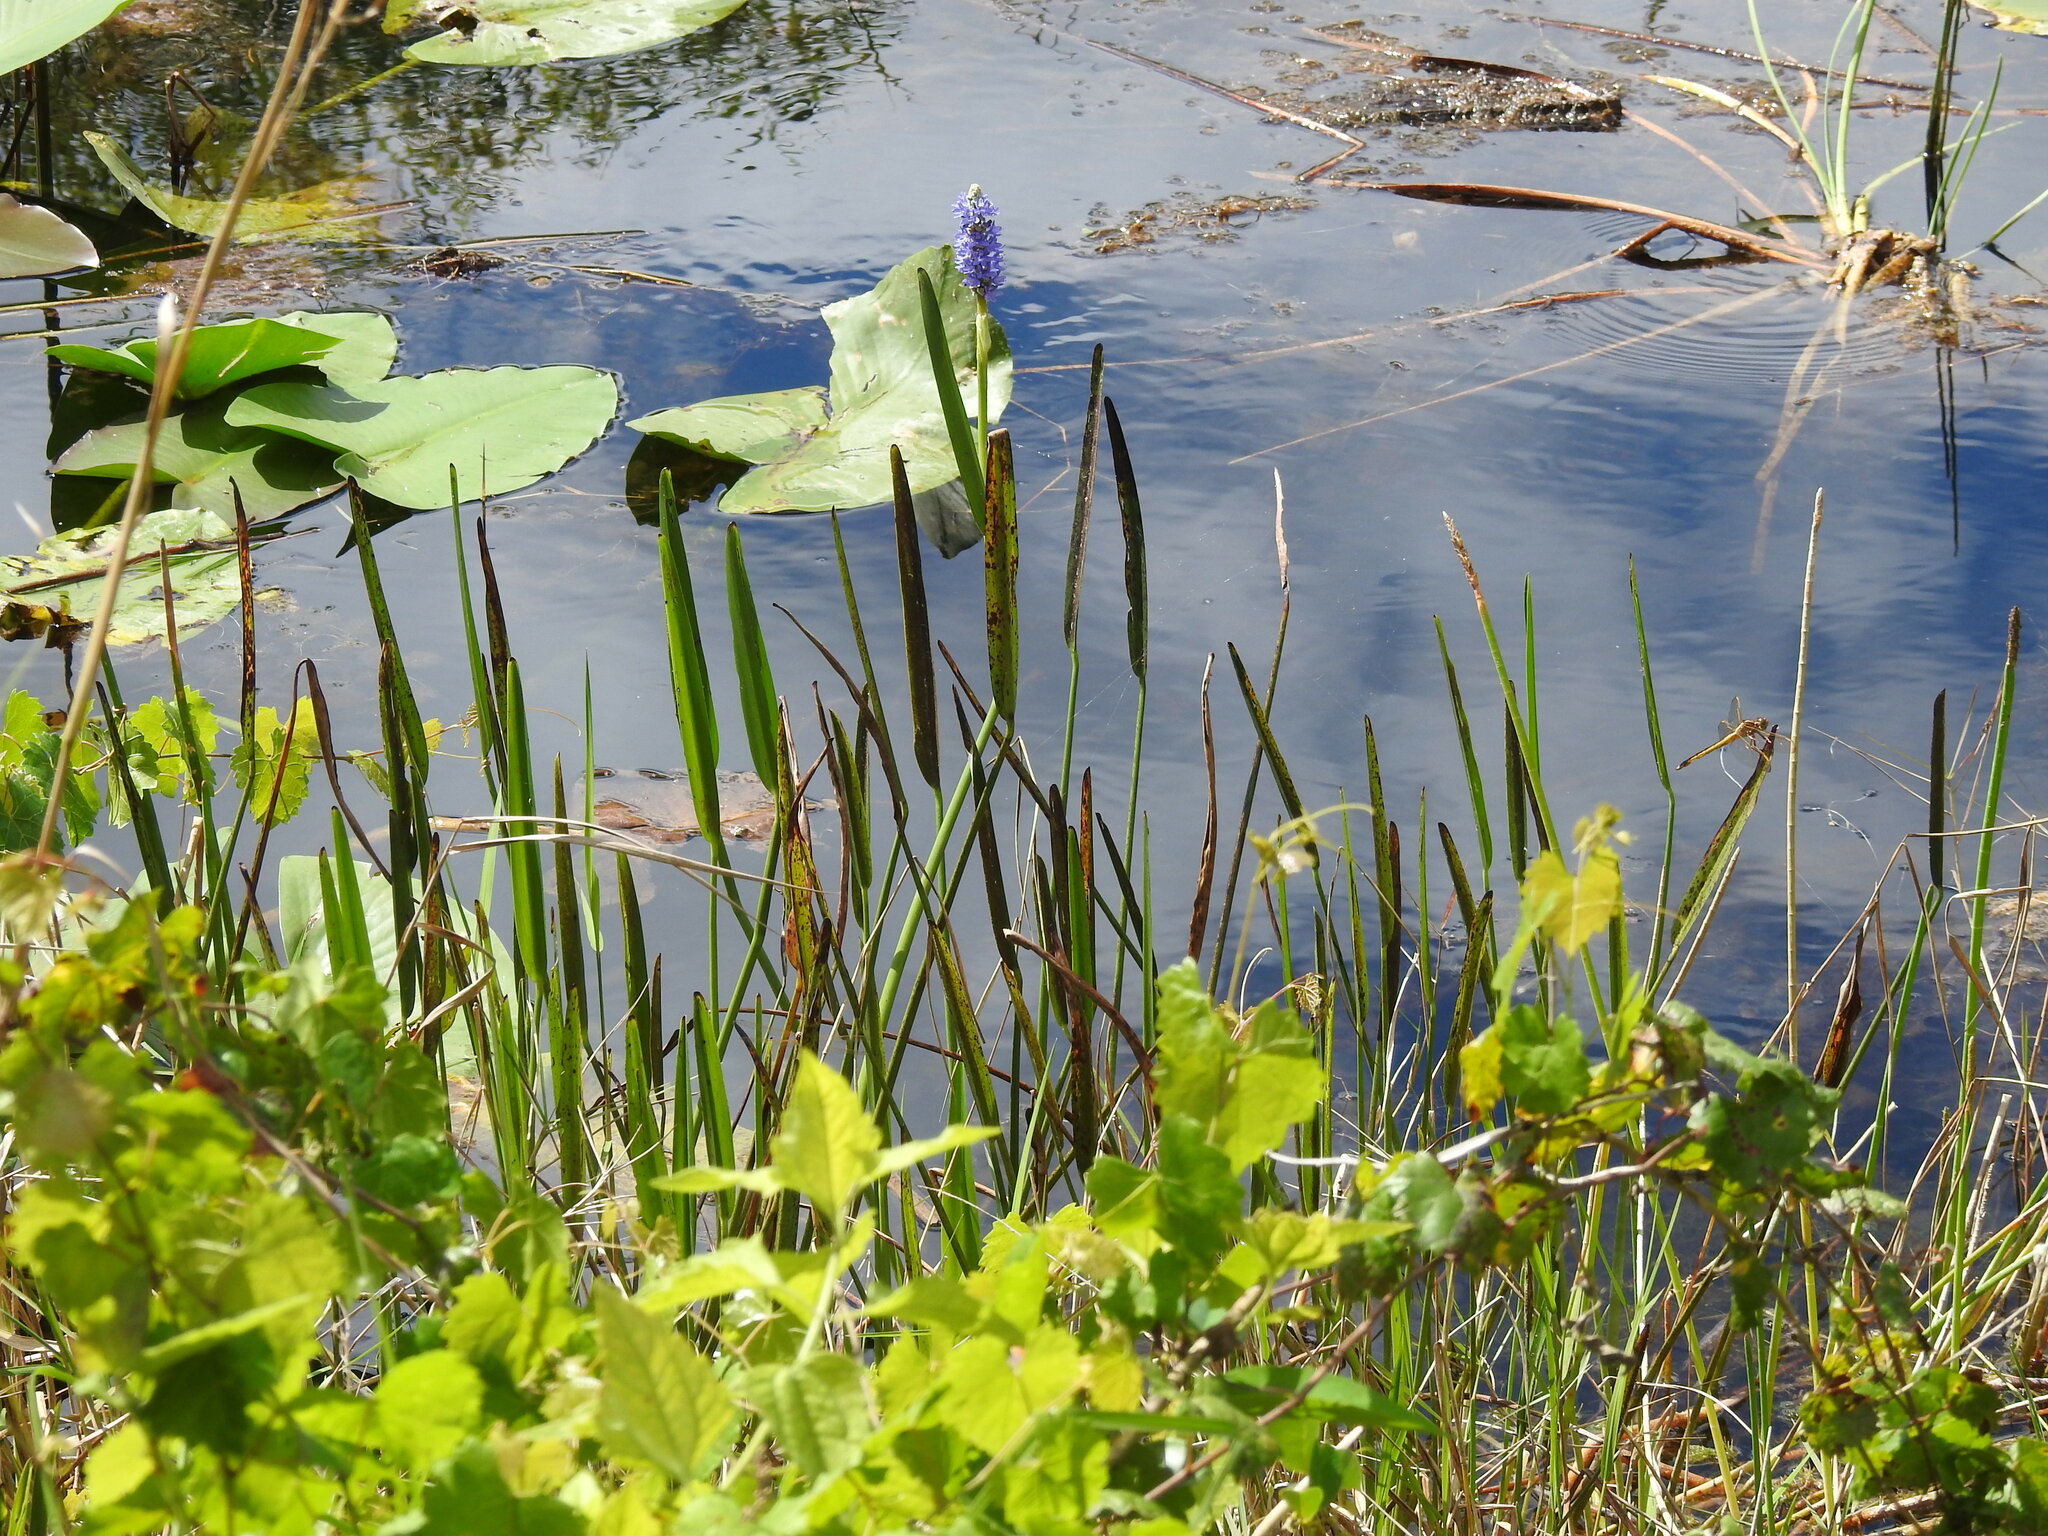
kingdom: Plantae
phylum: Tracheophyta
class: Liliopsida
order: Commelinales
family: Pontederiaceae
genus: Pontederia
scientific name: Pontederia cordata
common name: Pickerelweed
